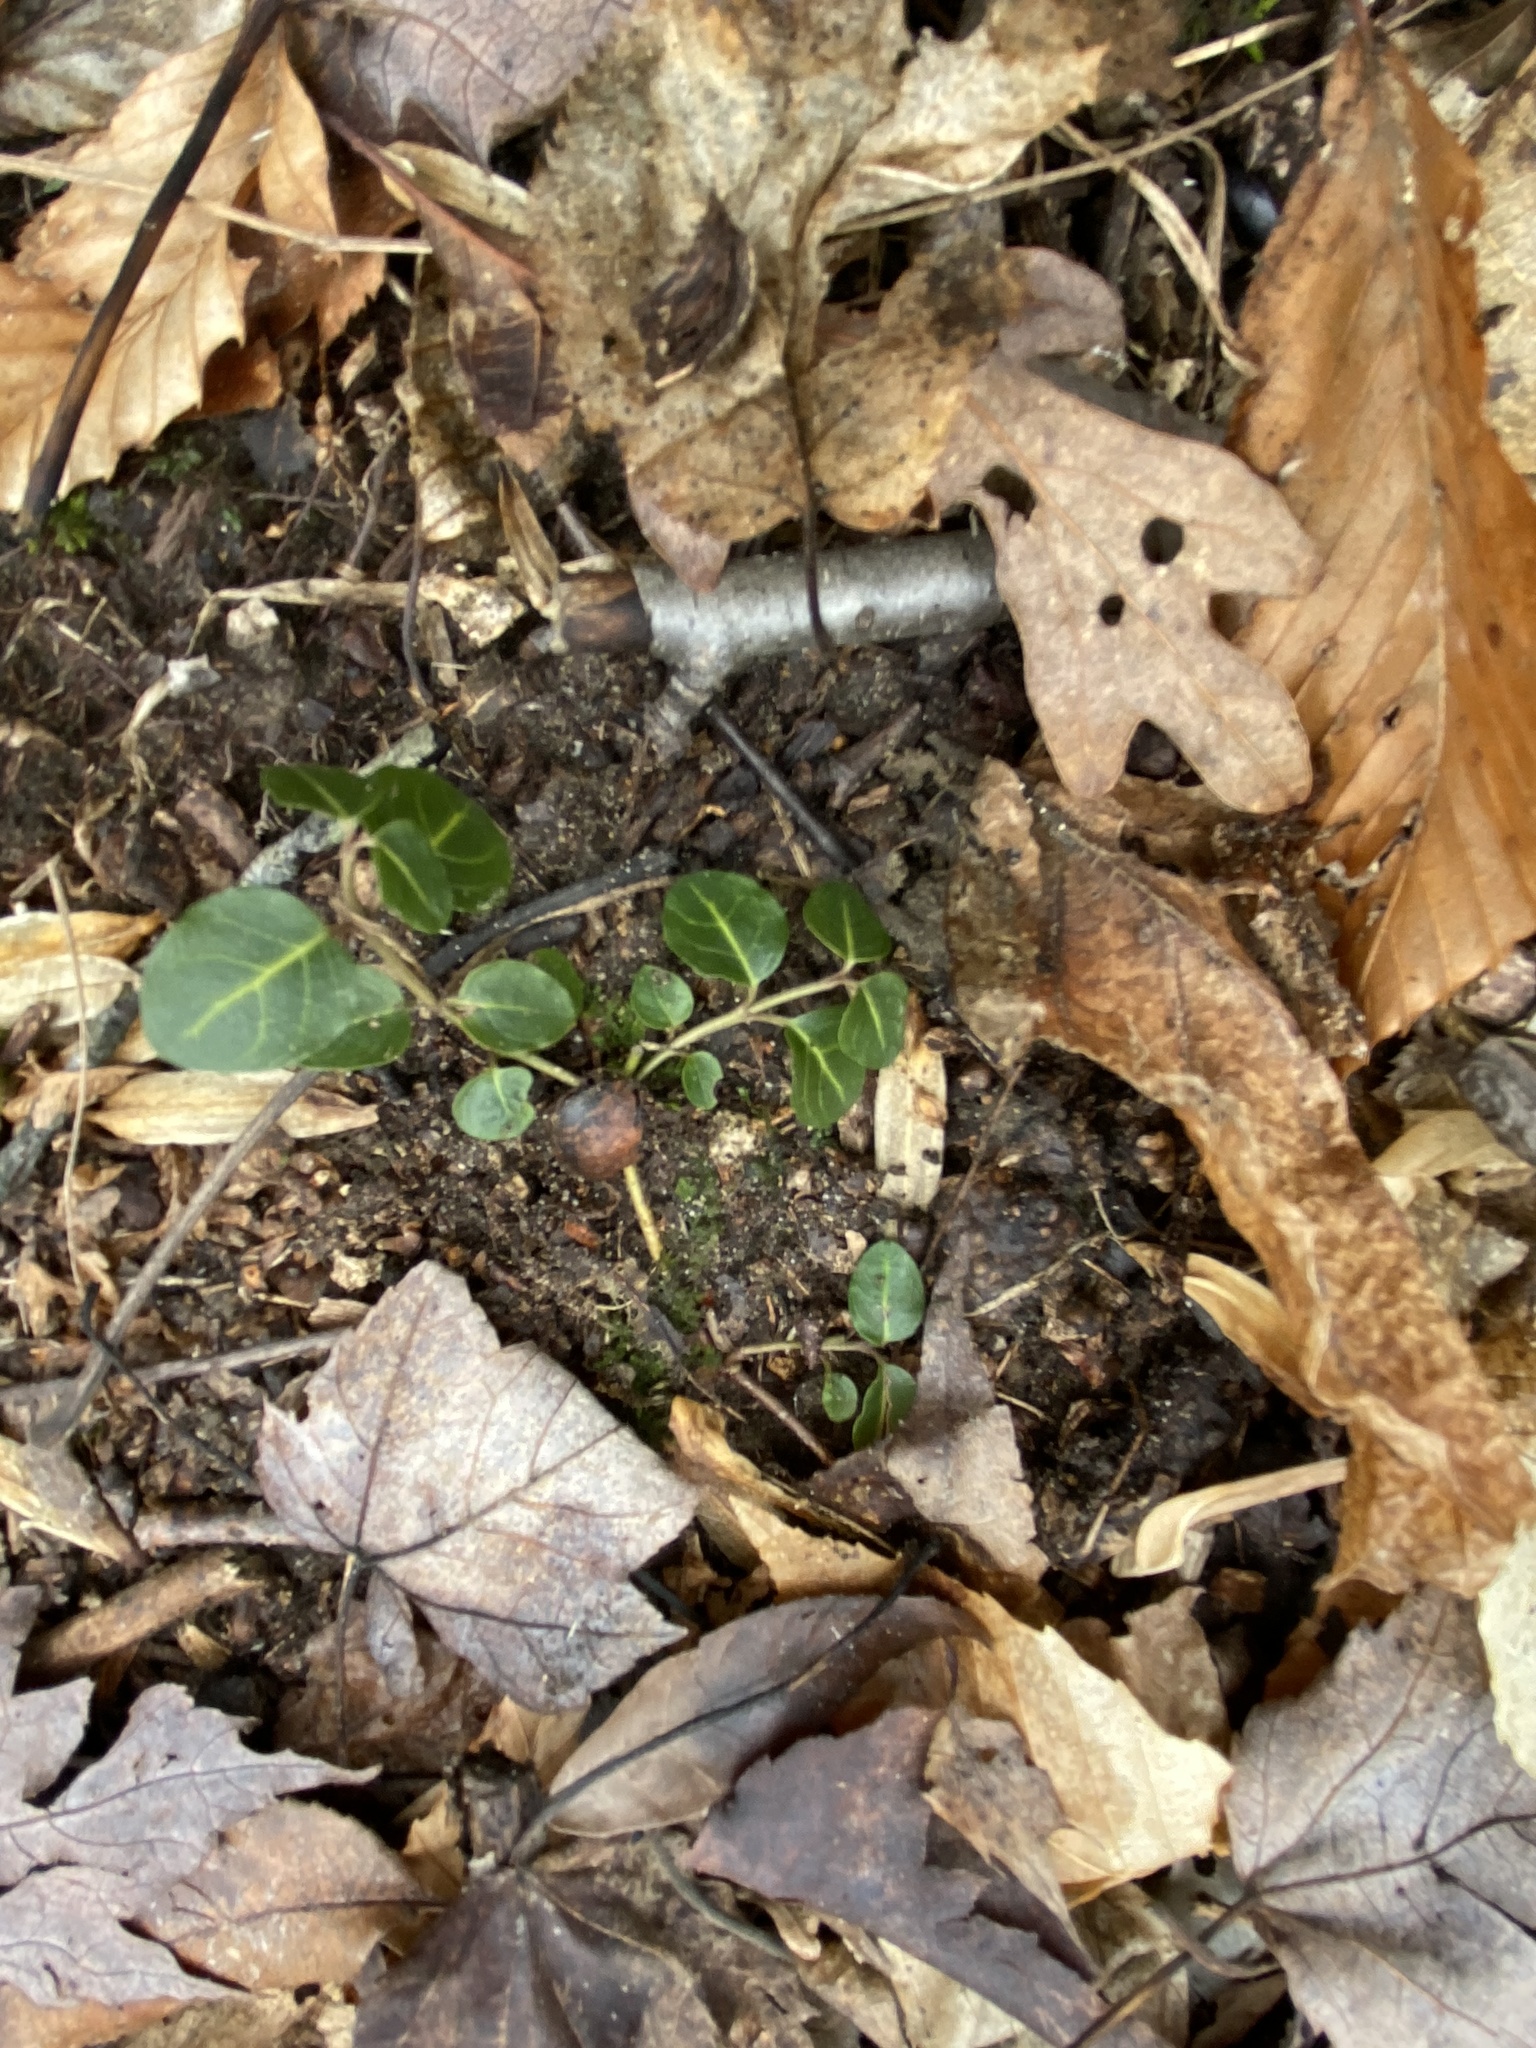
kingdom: Plantae
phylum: Tracheophyta
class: Magnoliopsida
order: Gentianales
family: Rubiaceae
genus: Mitchella
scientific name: Mitchella repens
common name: Partridge-berry
